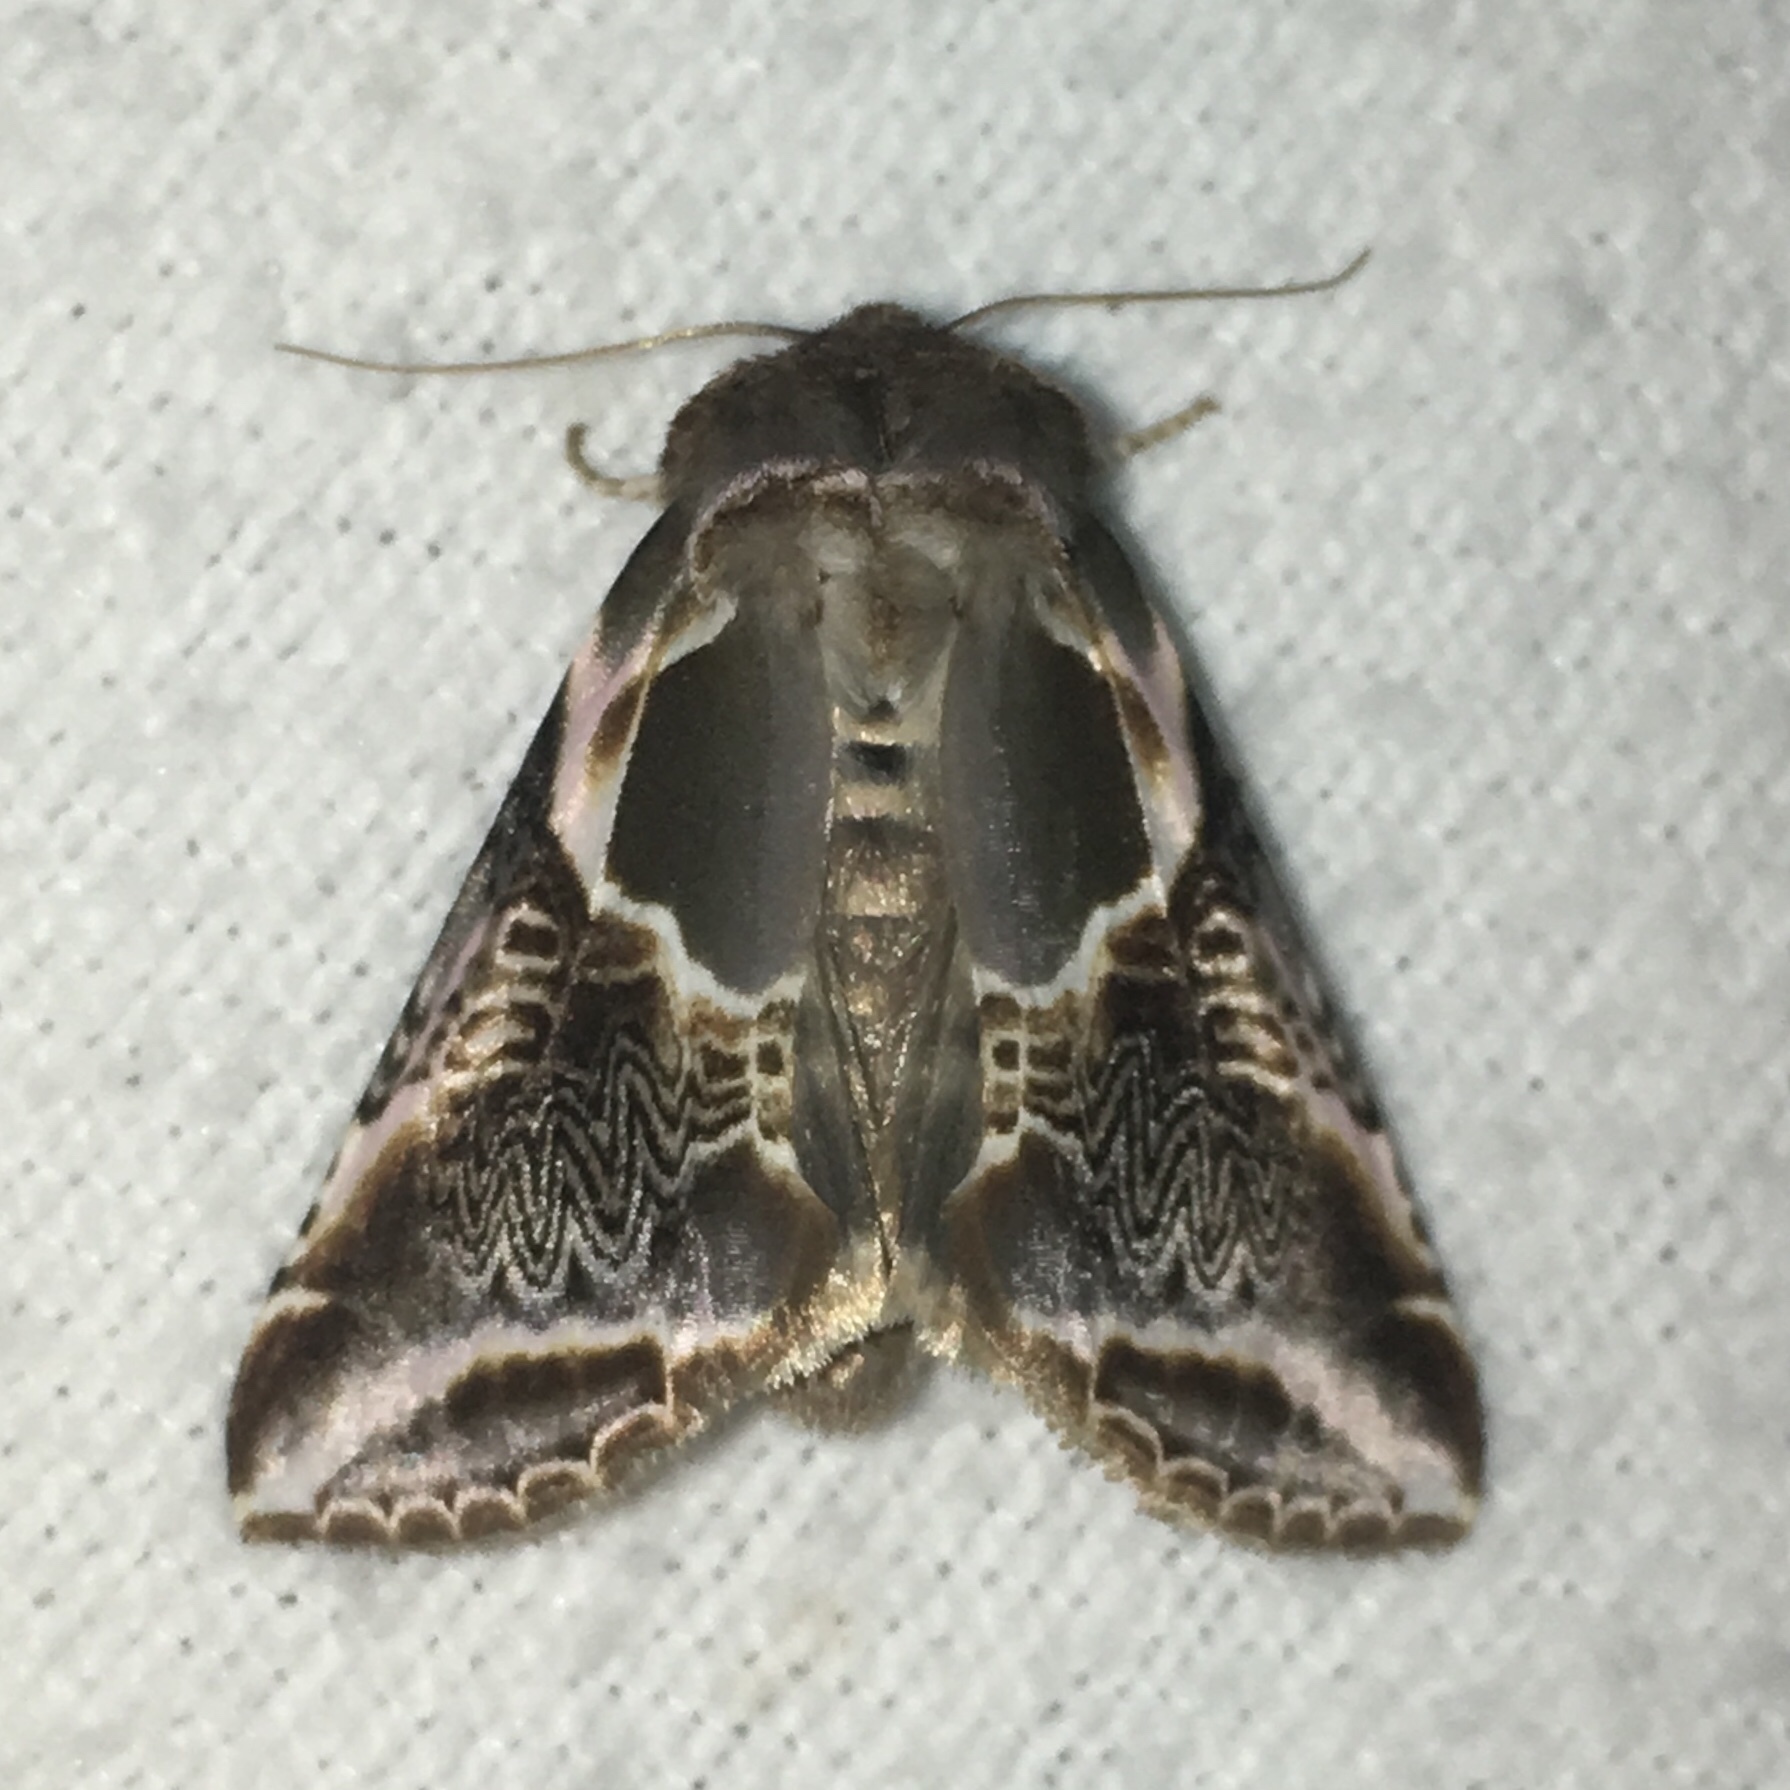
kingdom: Animalia
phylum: Arthropoda
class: Insecta
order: Lepidoptera
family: Drepanidae
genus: Habrosyne
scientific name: Habrosyne scripta
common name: Lettered habrosyne moth
